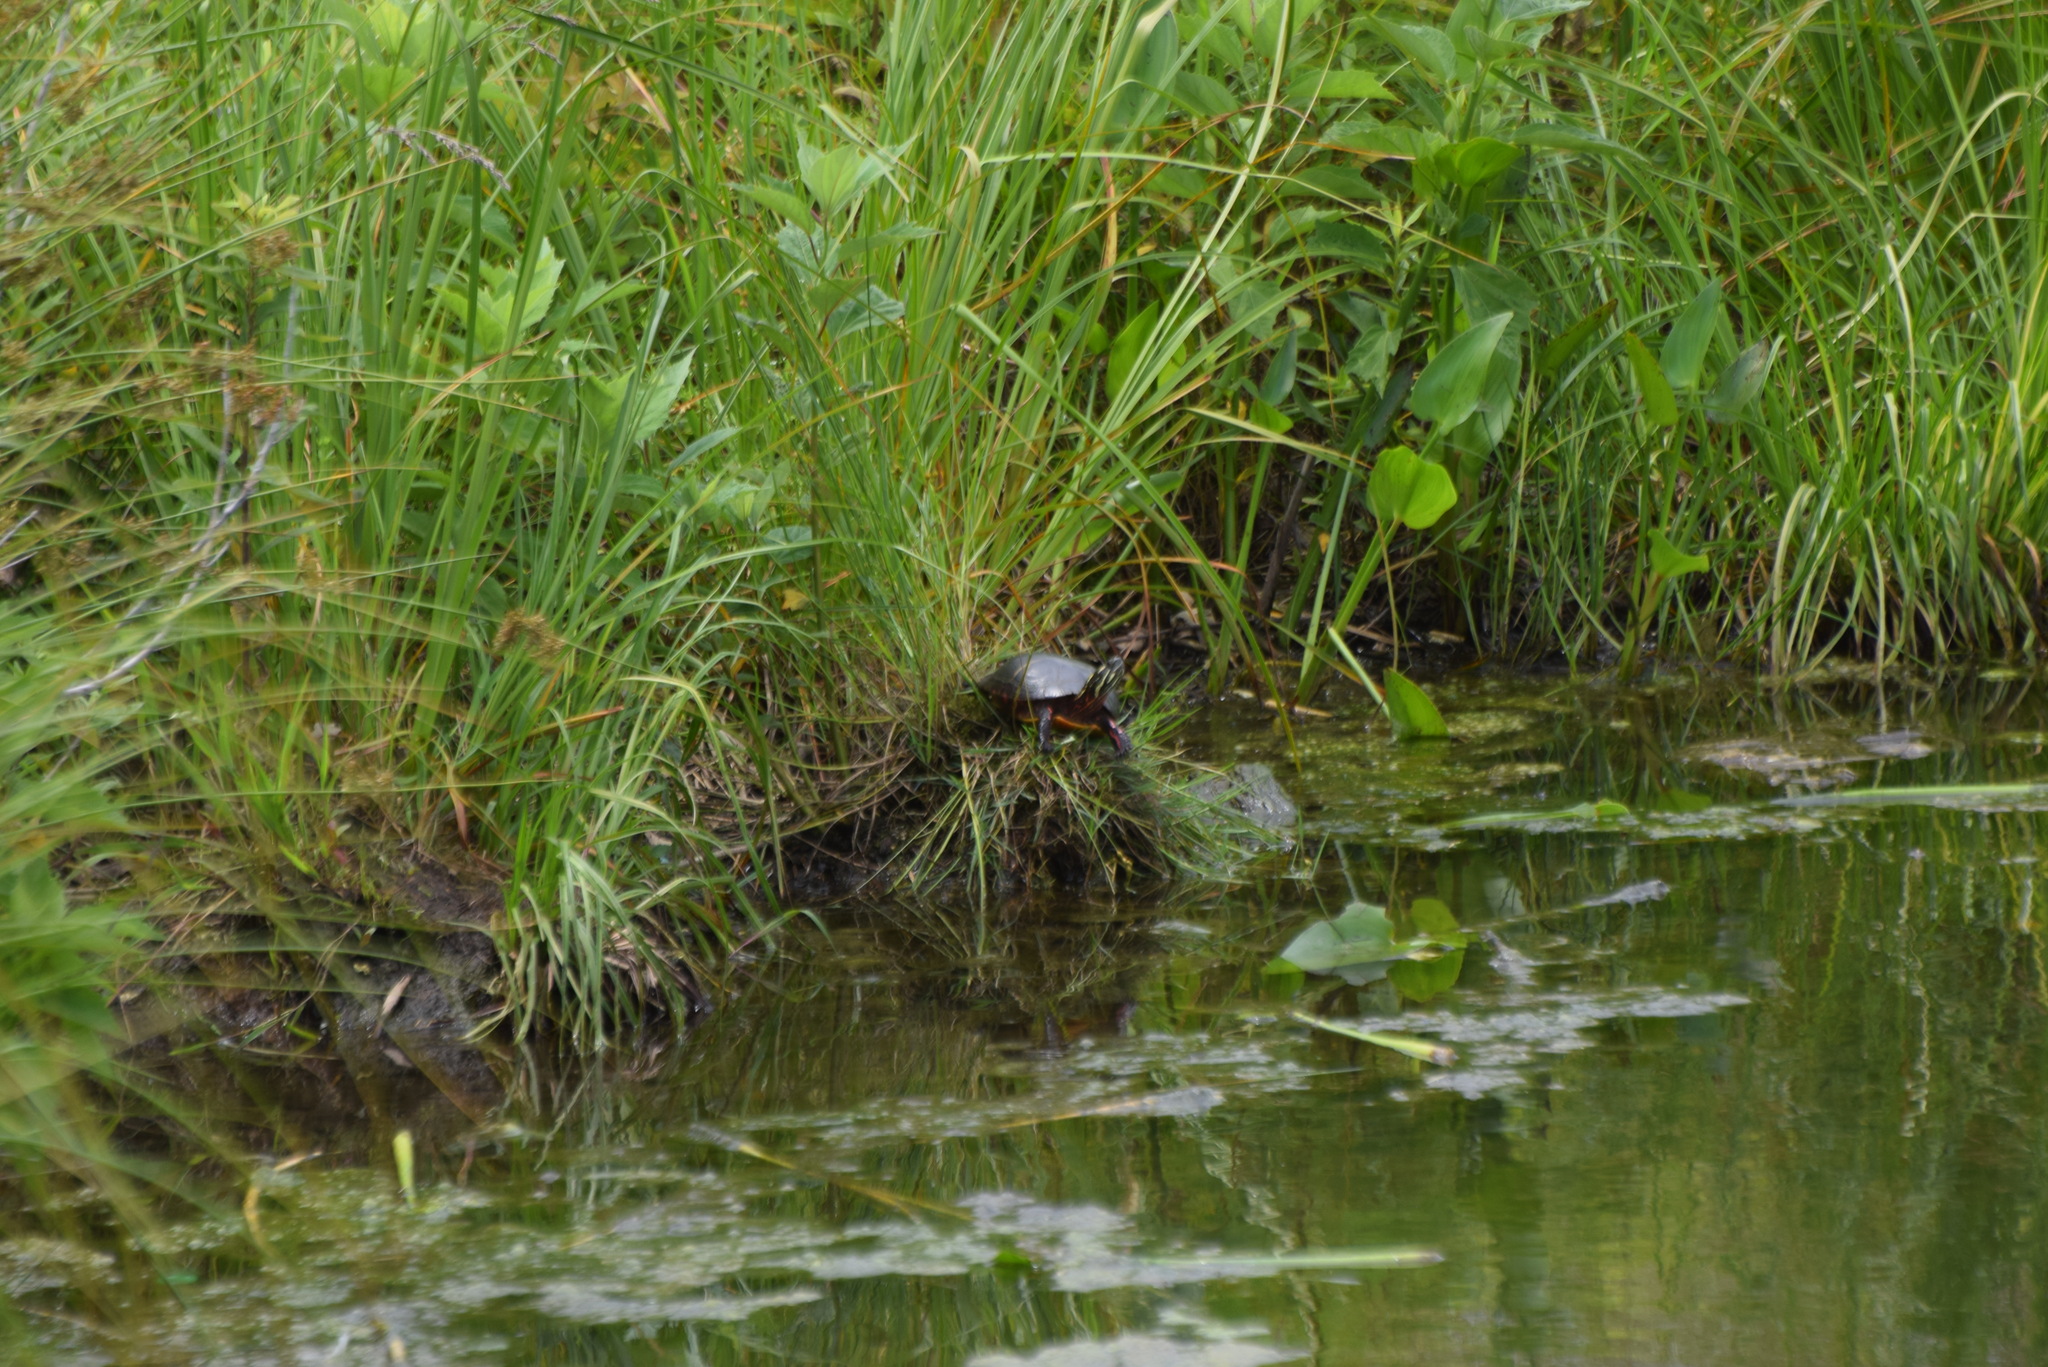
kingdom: Animalia
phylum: Chordata
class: Testudines
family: Emydidae
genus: Chrysemys
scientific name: Chrysemys picta
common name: Painted turtle
